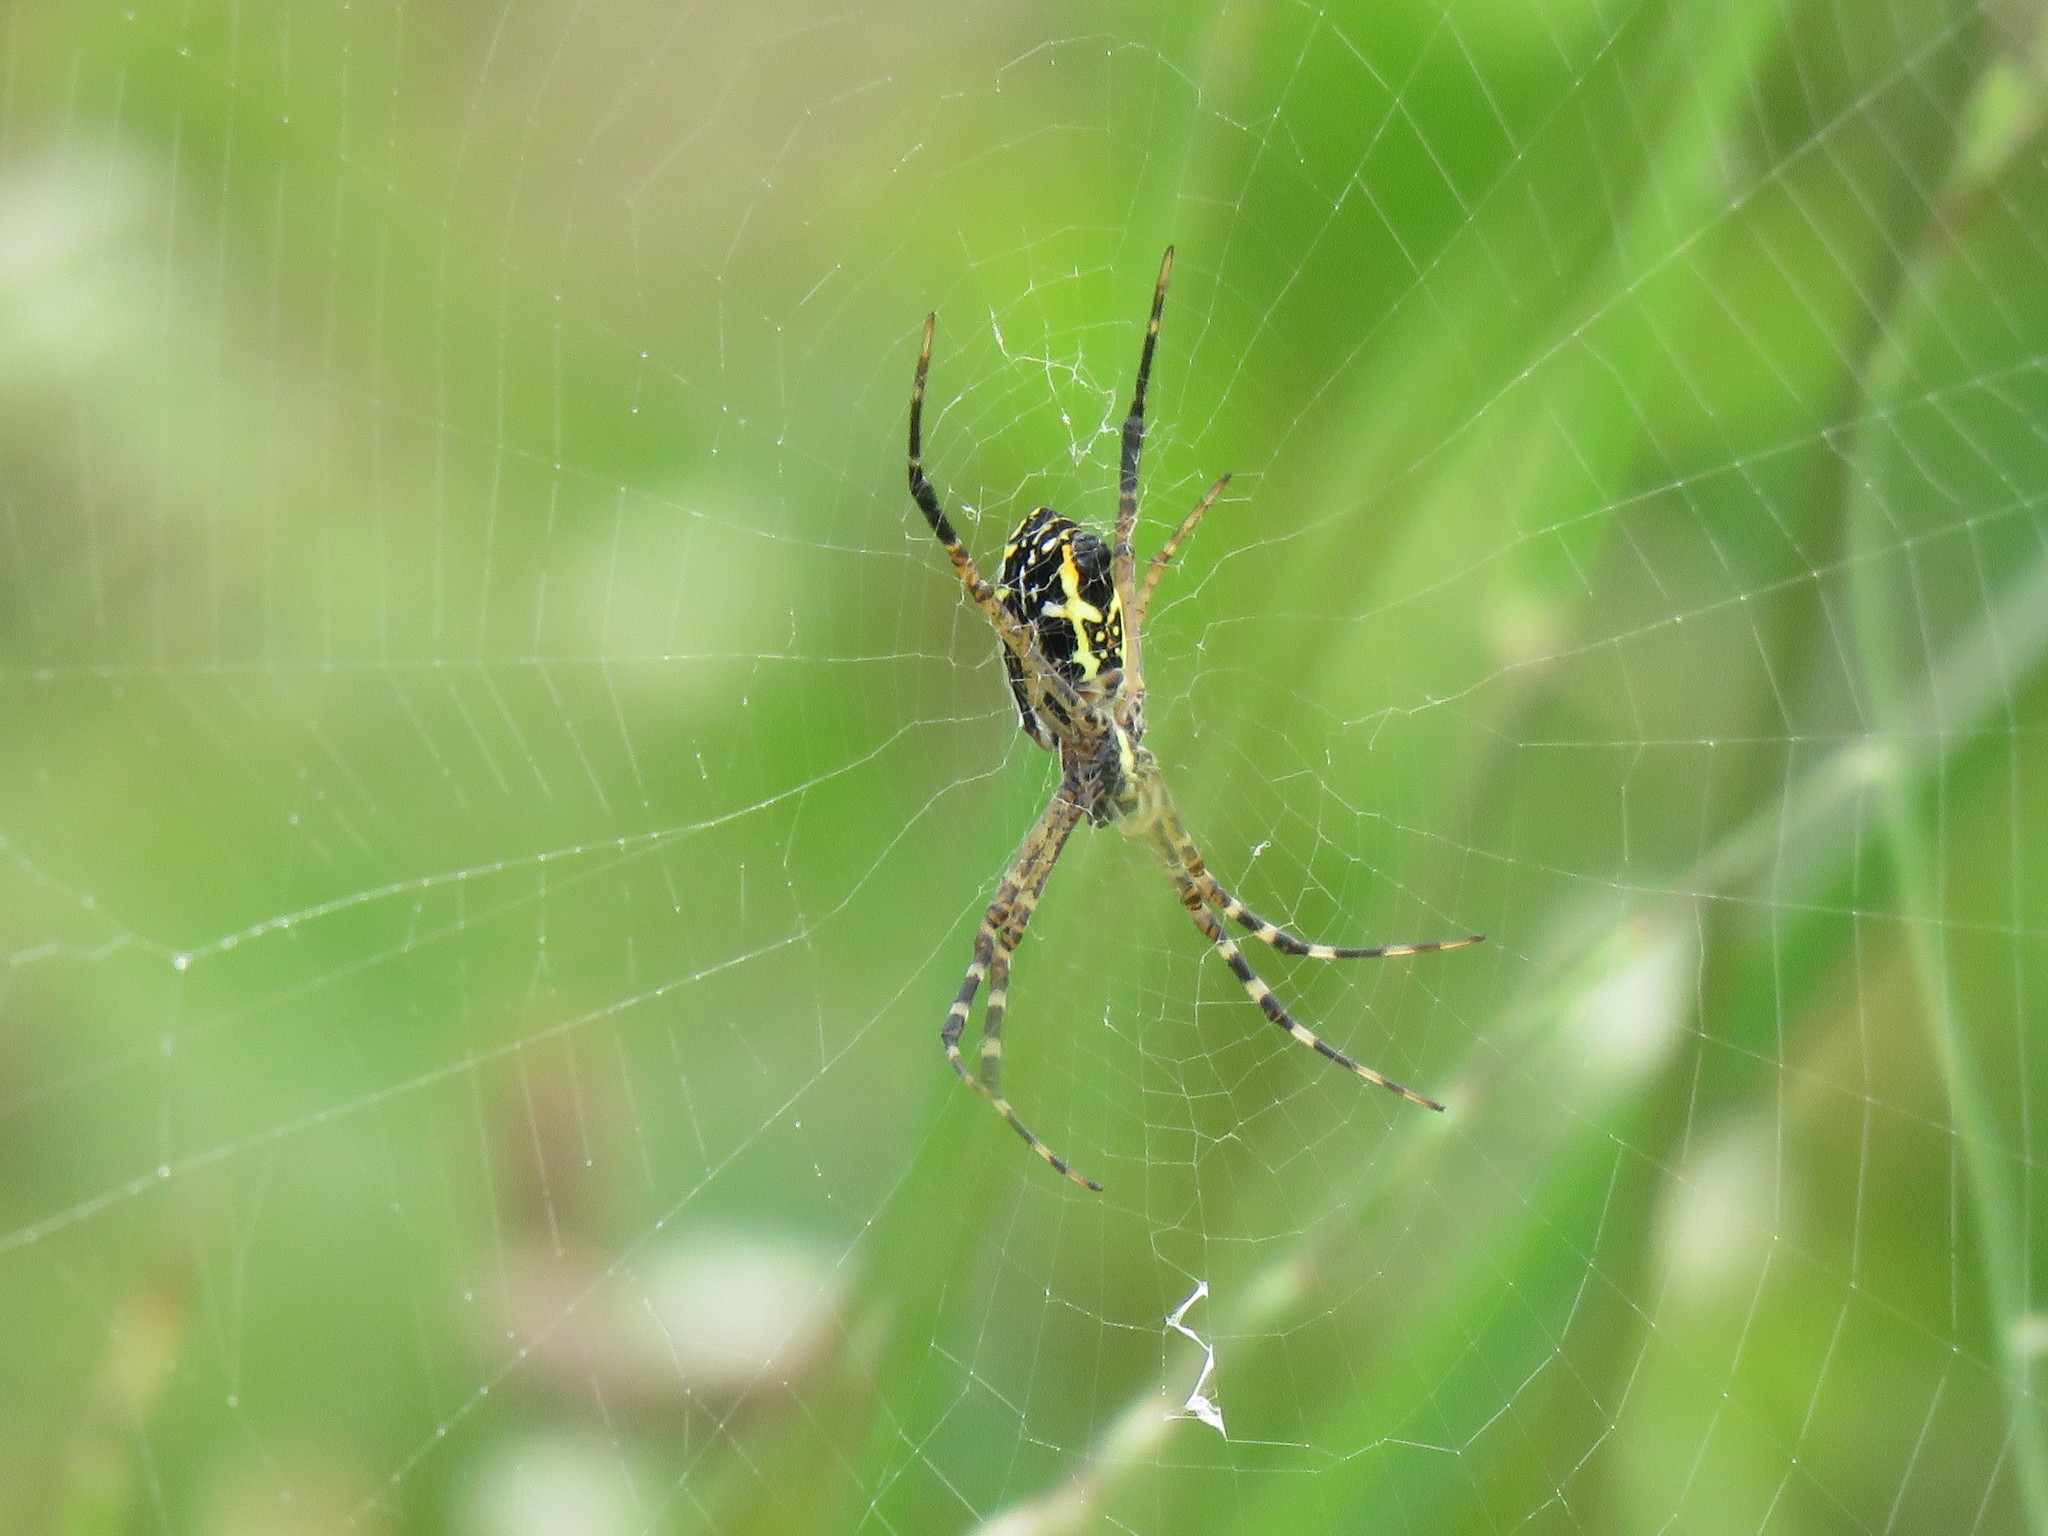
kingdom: Animalia
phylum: Arthropoda
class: Arachnida
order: Araneae
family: Araneidae
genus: Argiope
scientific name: Argiope catenulata
